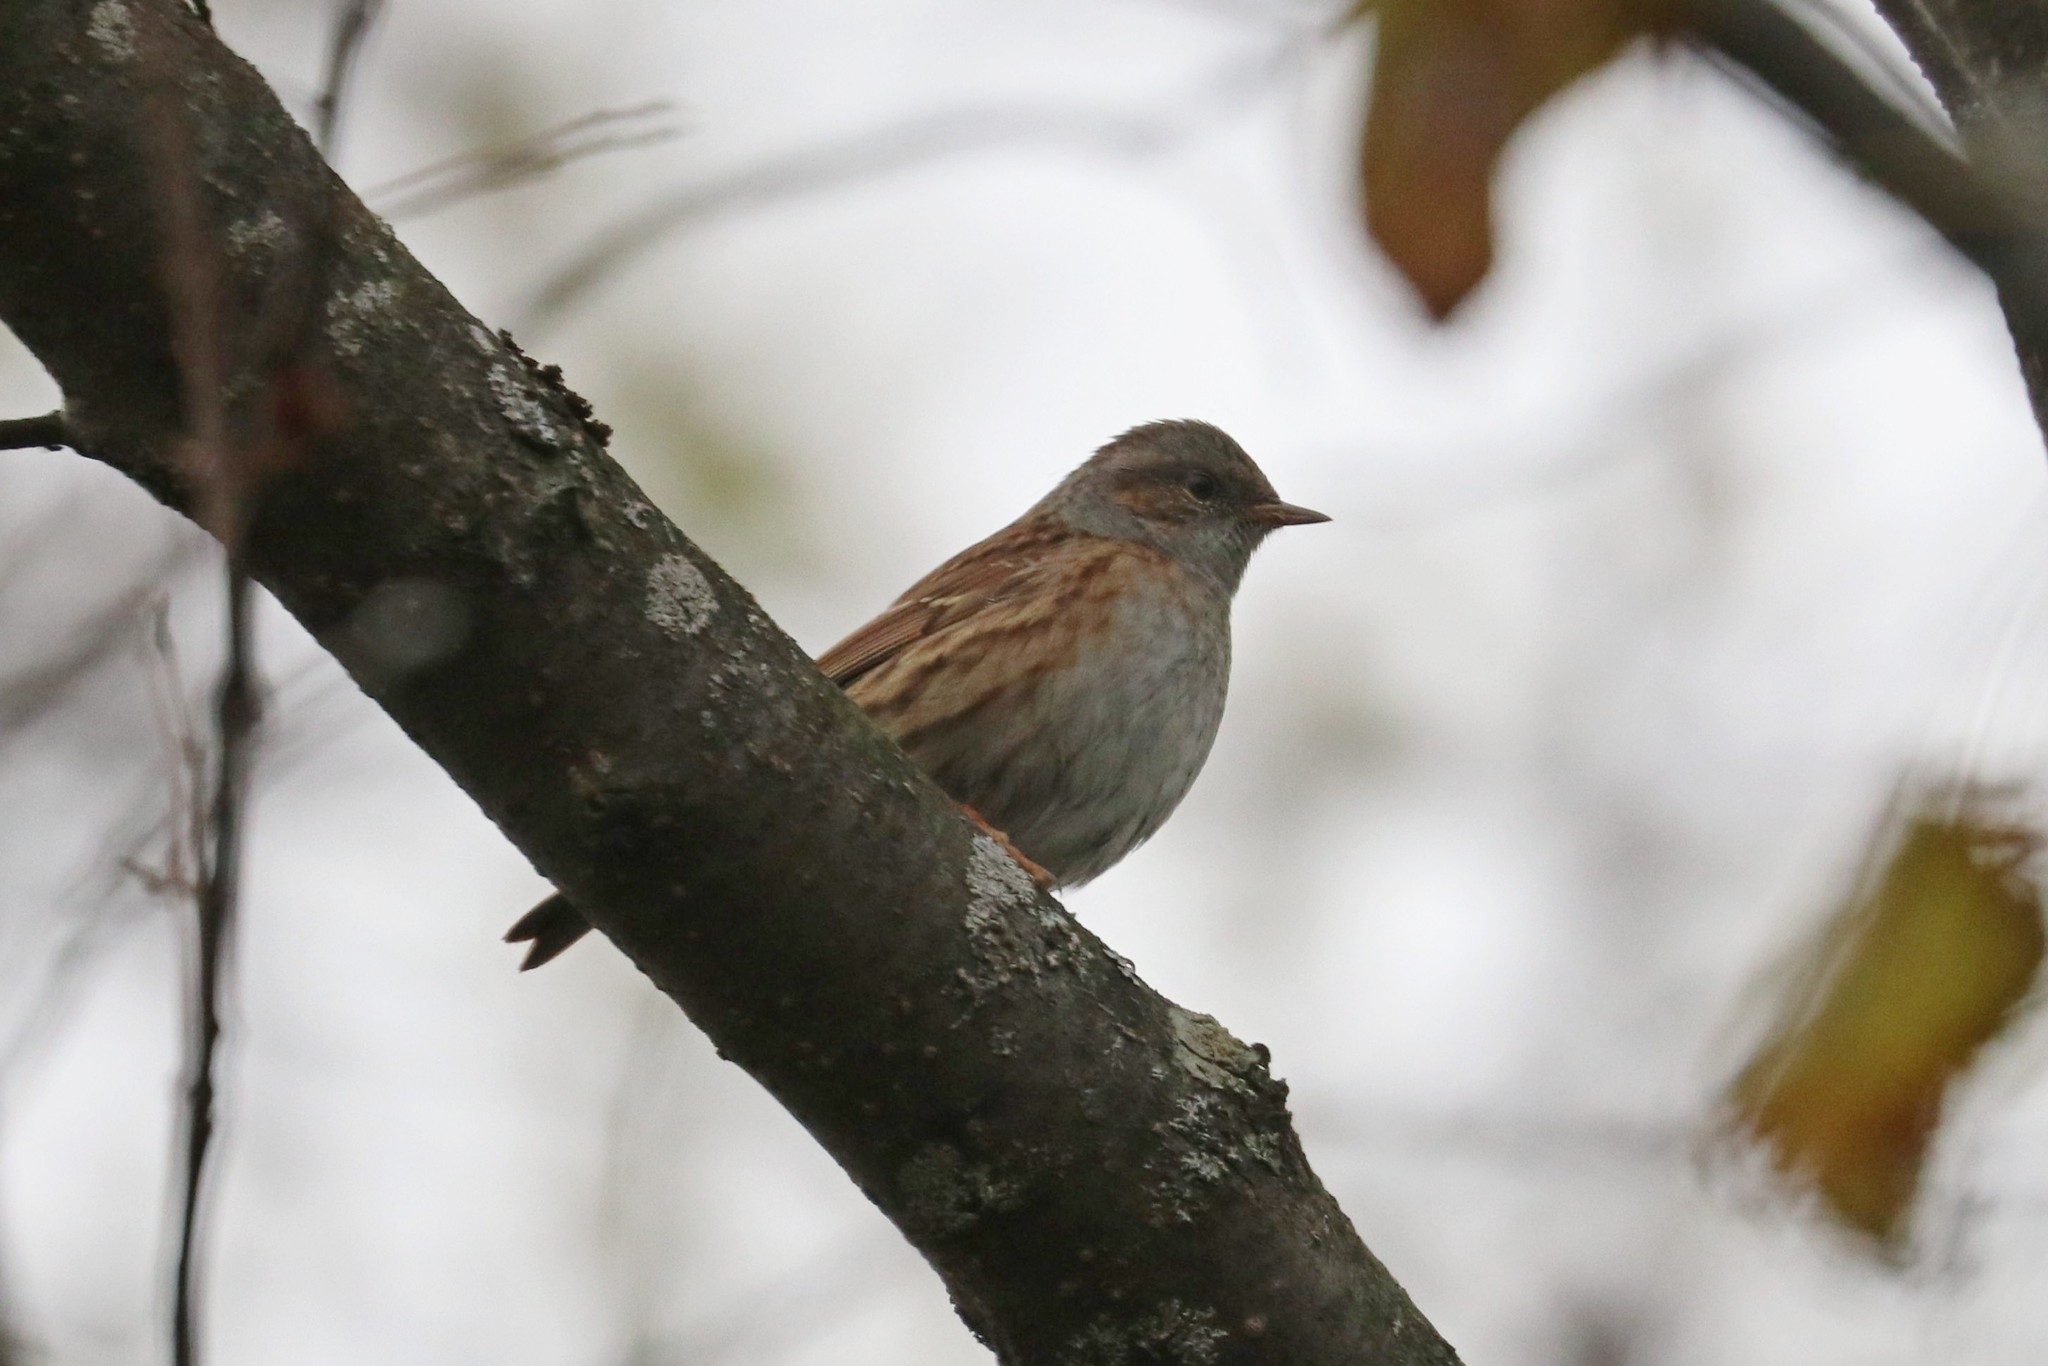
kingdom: Animalia
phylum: Chordata
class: Aves
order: Passeriformes
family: Prunellidae
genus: Prunella
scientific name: Prunella modularis
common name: Dunnock
